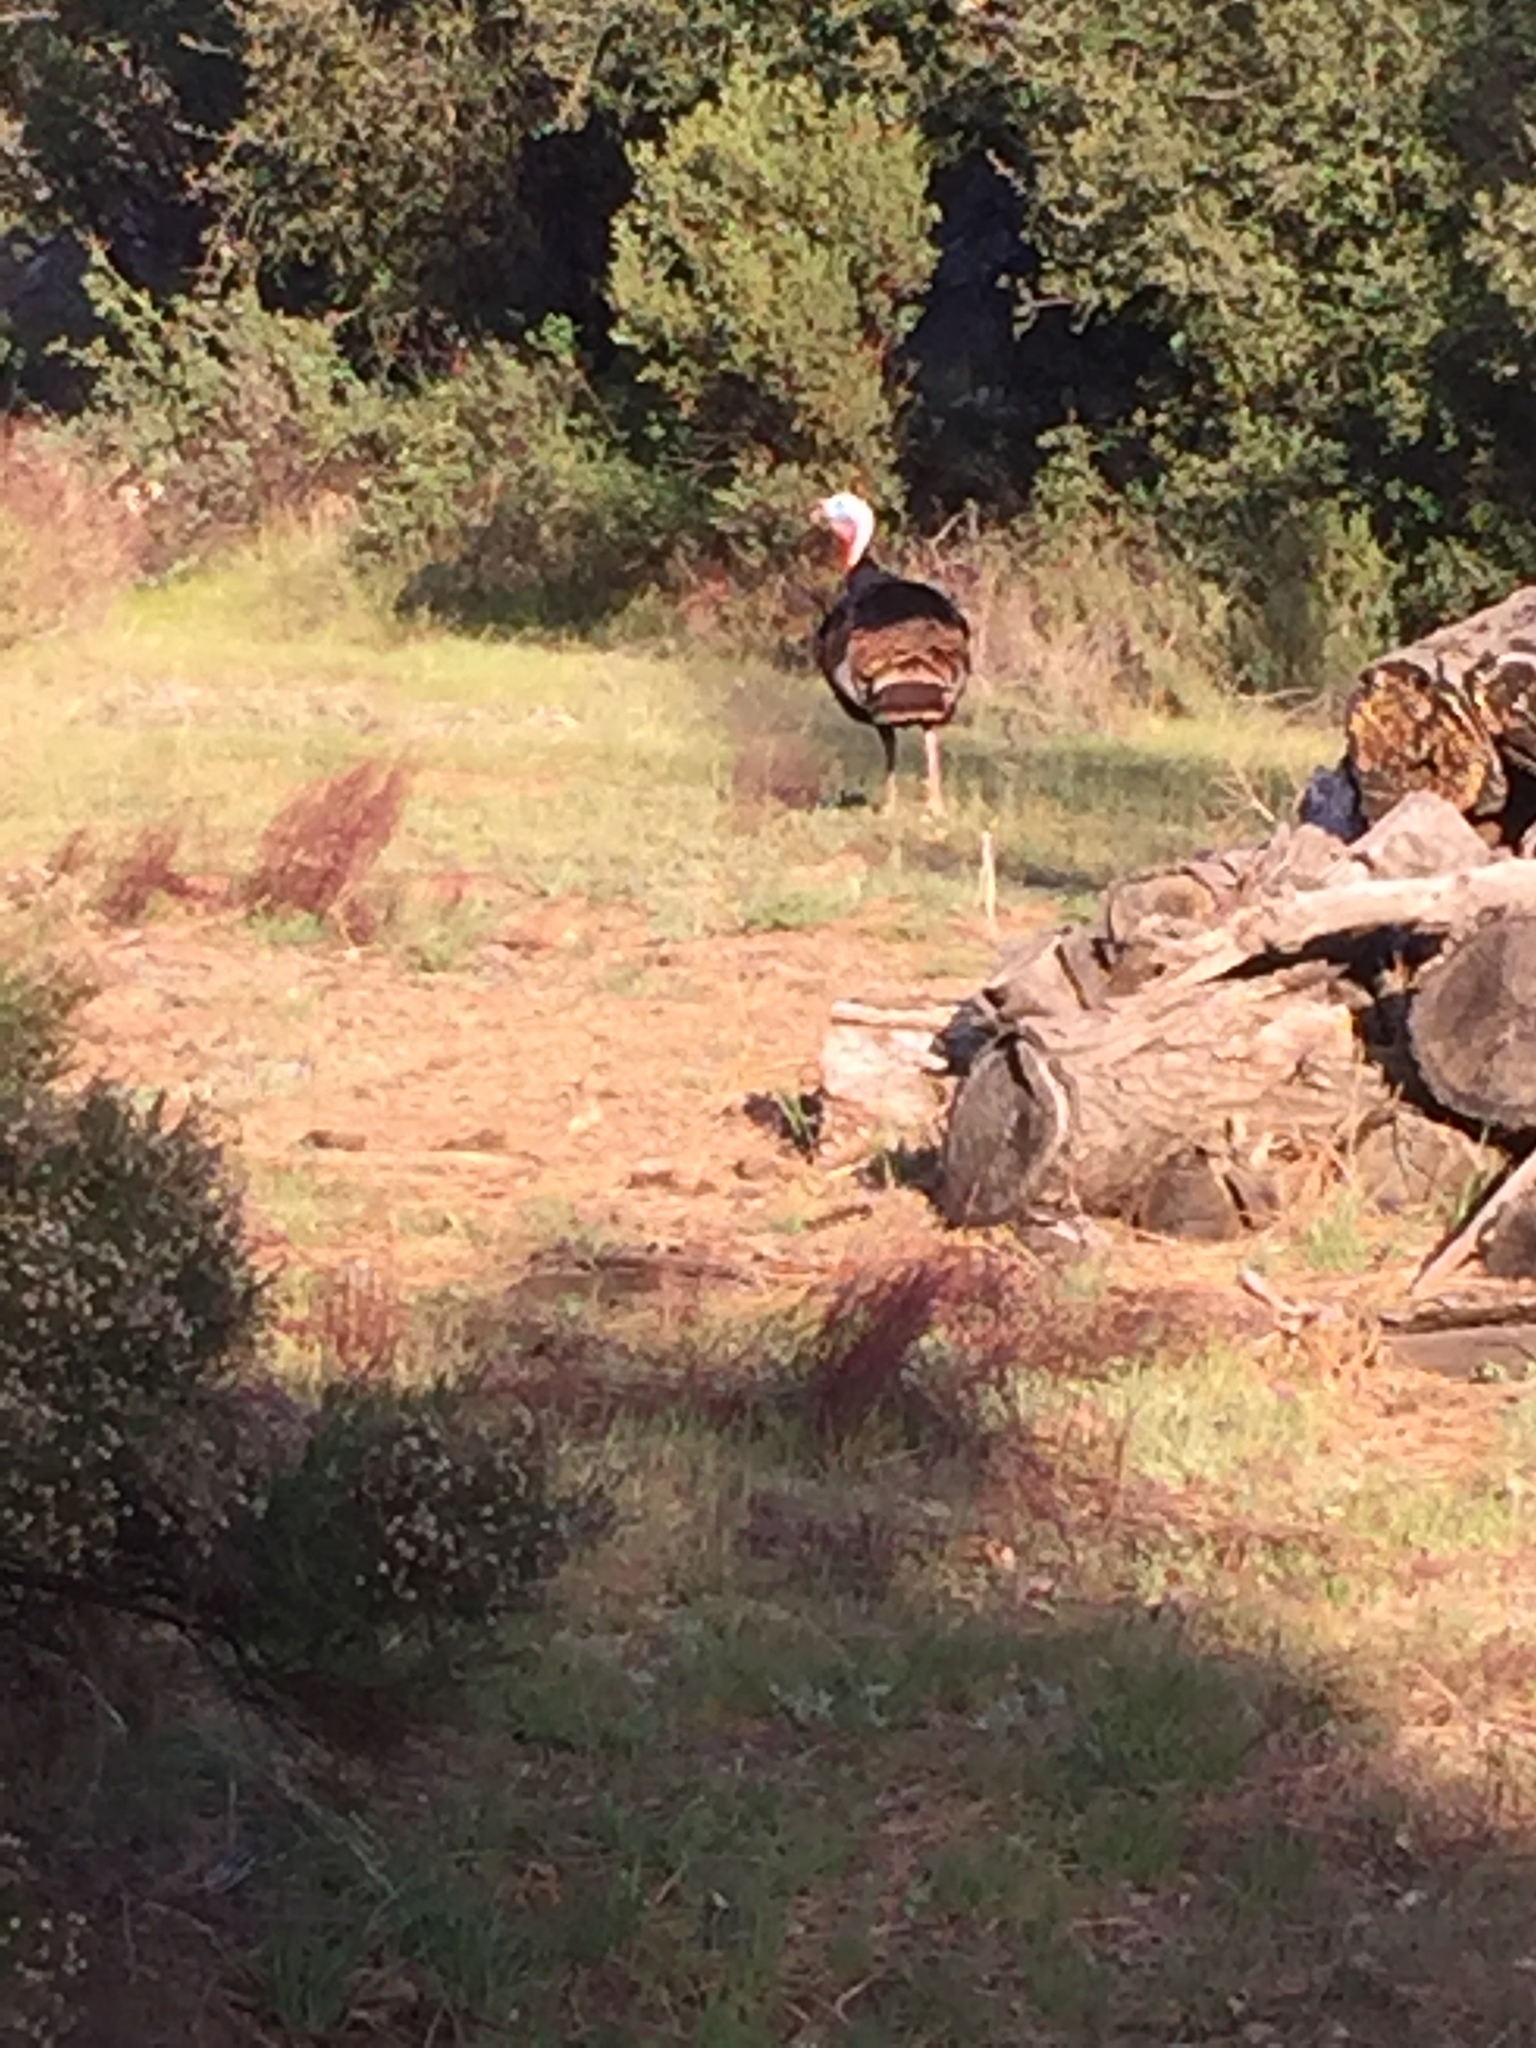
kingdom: Animalia
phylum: Chordata
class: Aves
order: Galliformes
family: Phasianidae
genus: Meleagris
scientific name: Meleagris gallopavo
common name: Wild turkey
